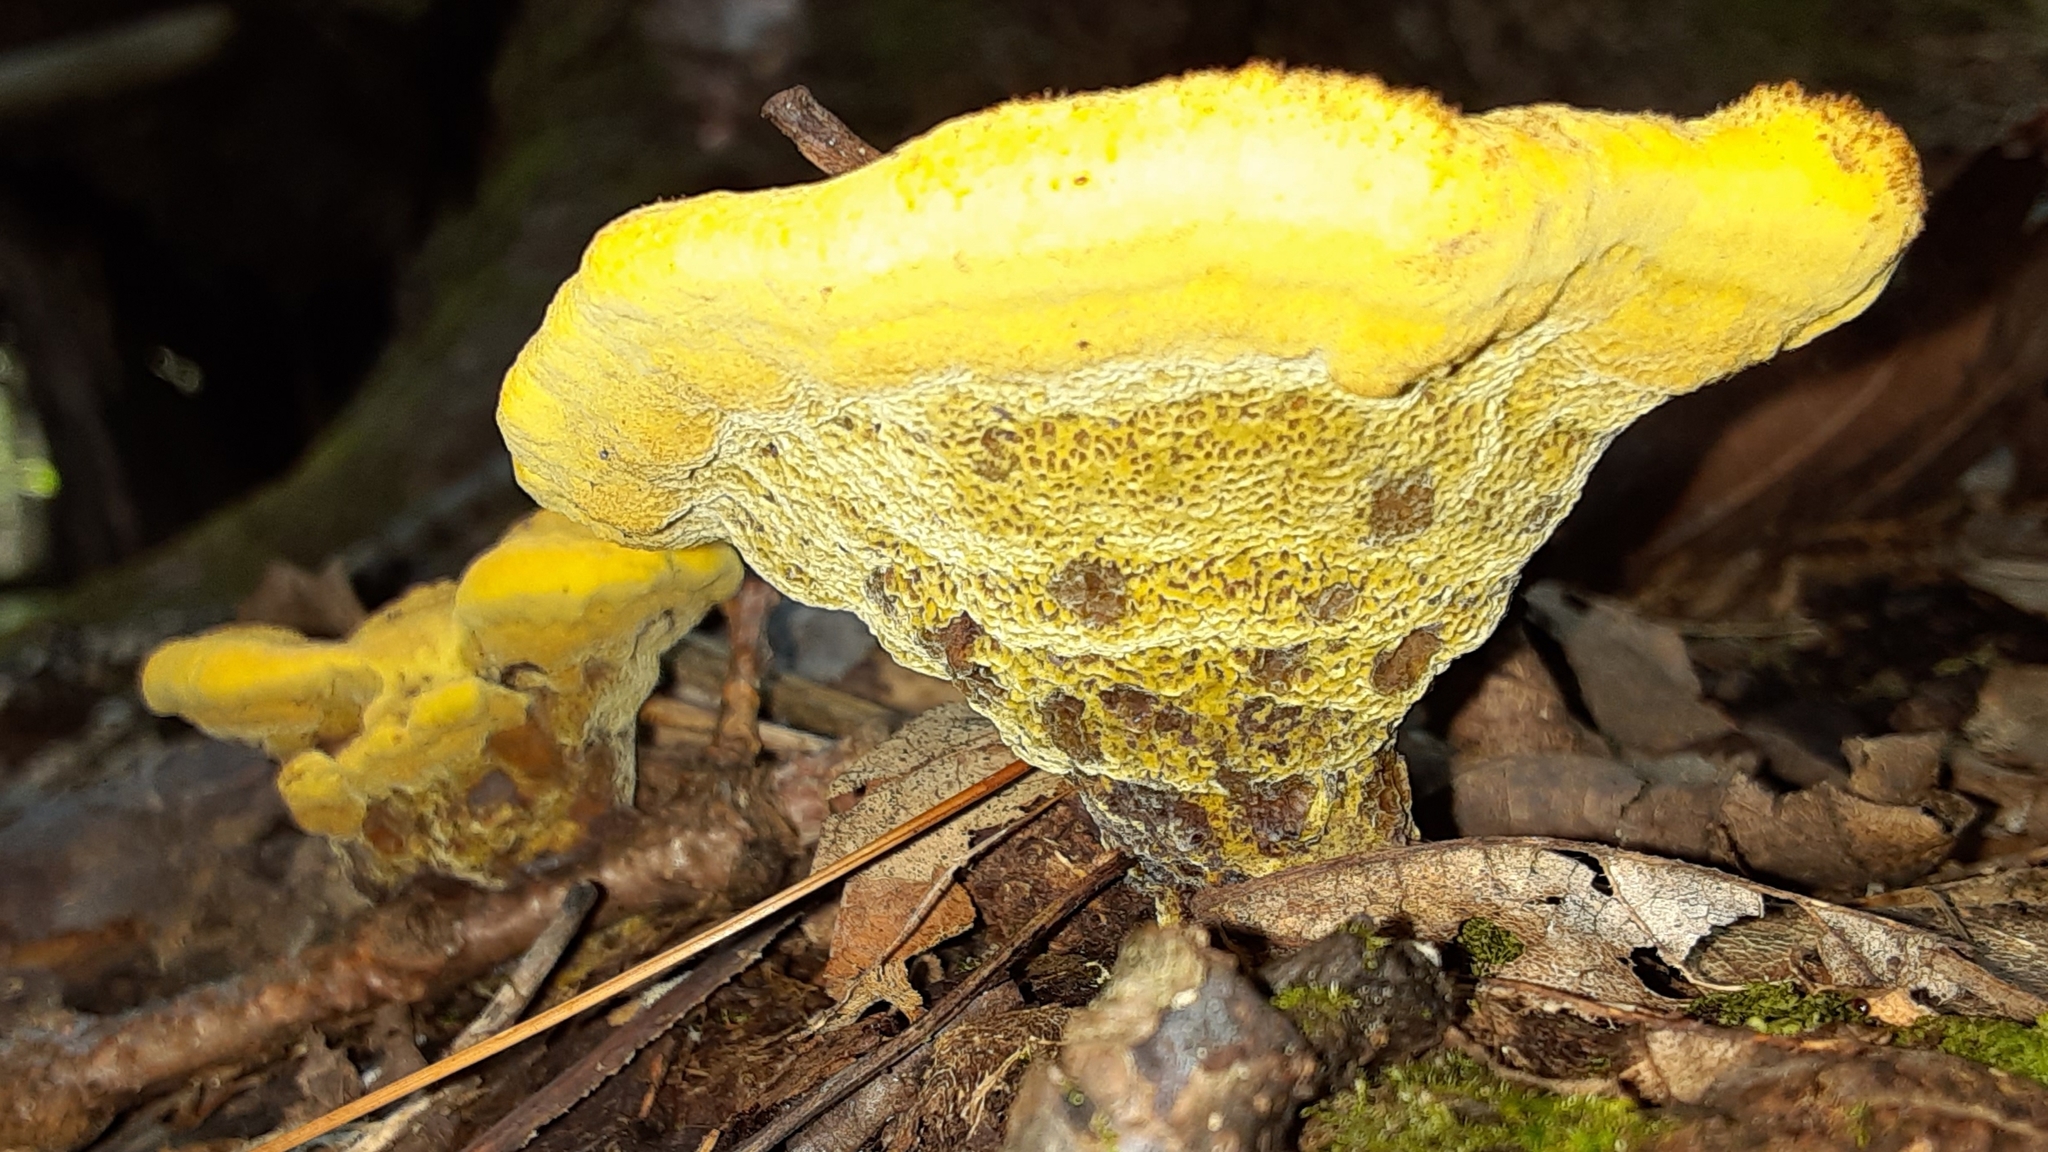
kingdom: Fungi
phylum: Basidiomycota
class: Agaricomycetes
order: Polyporales
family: Laetiporaceae
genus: Phaeolus
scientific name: Phaeolus schweinitzii
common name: Dyer's mazegill
